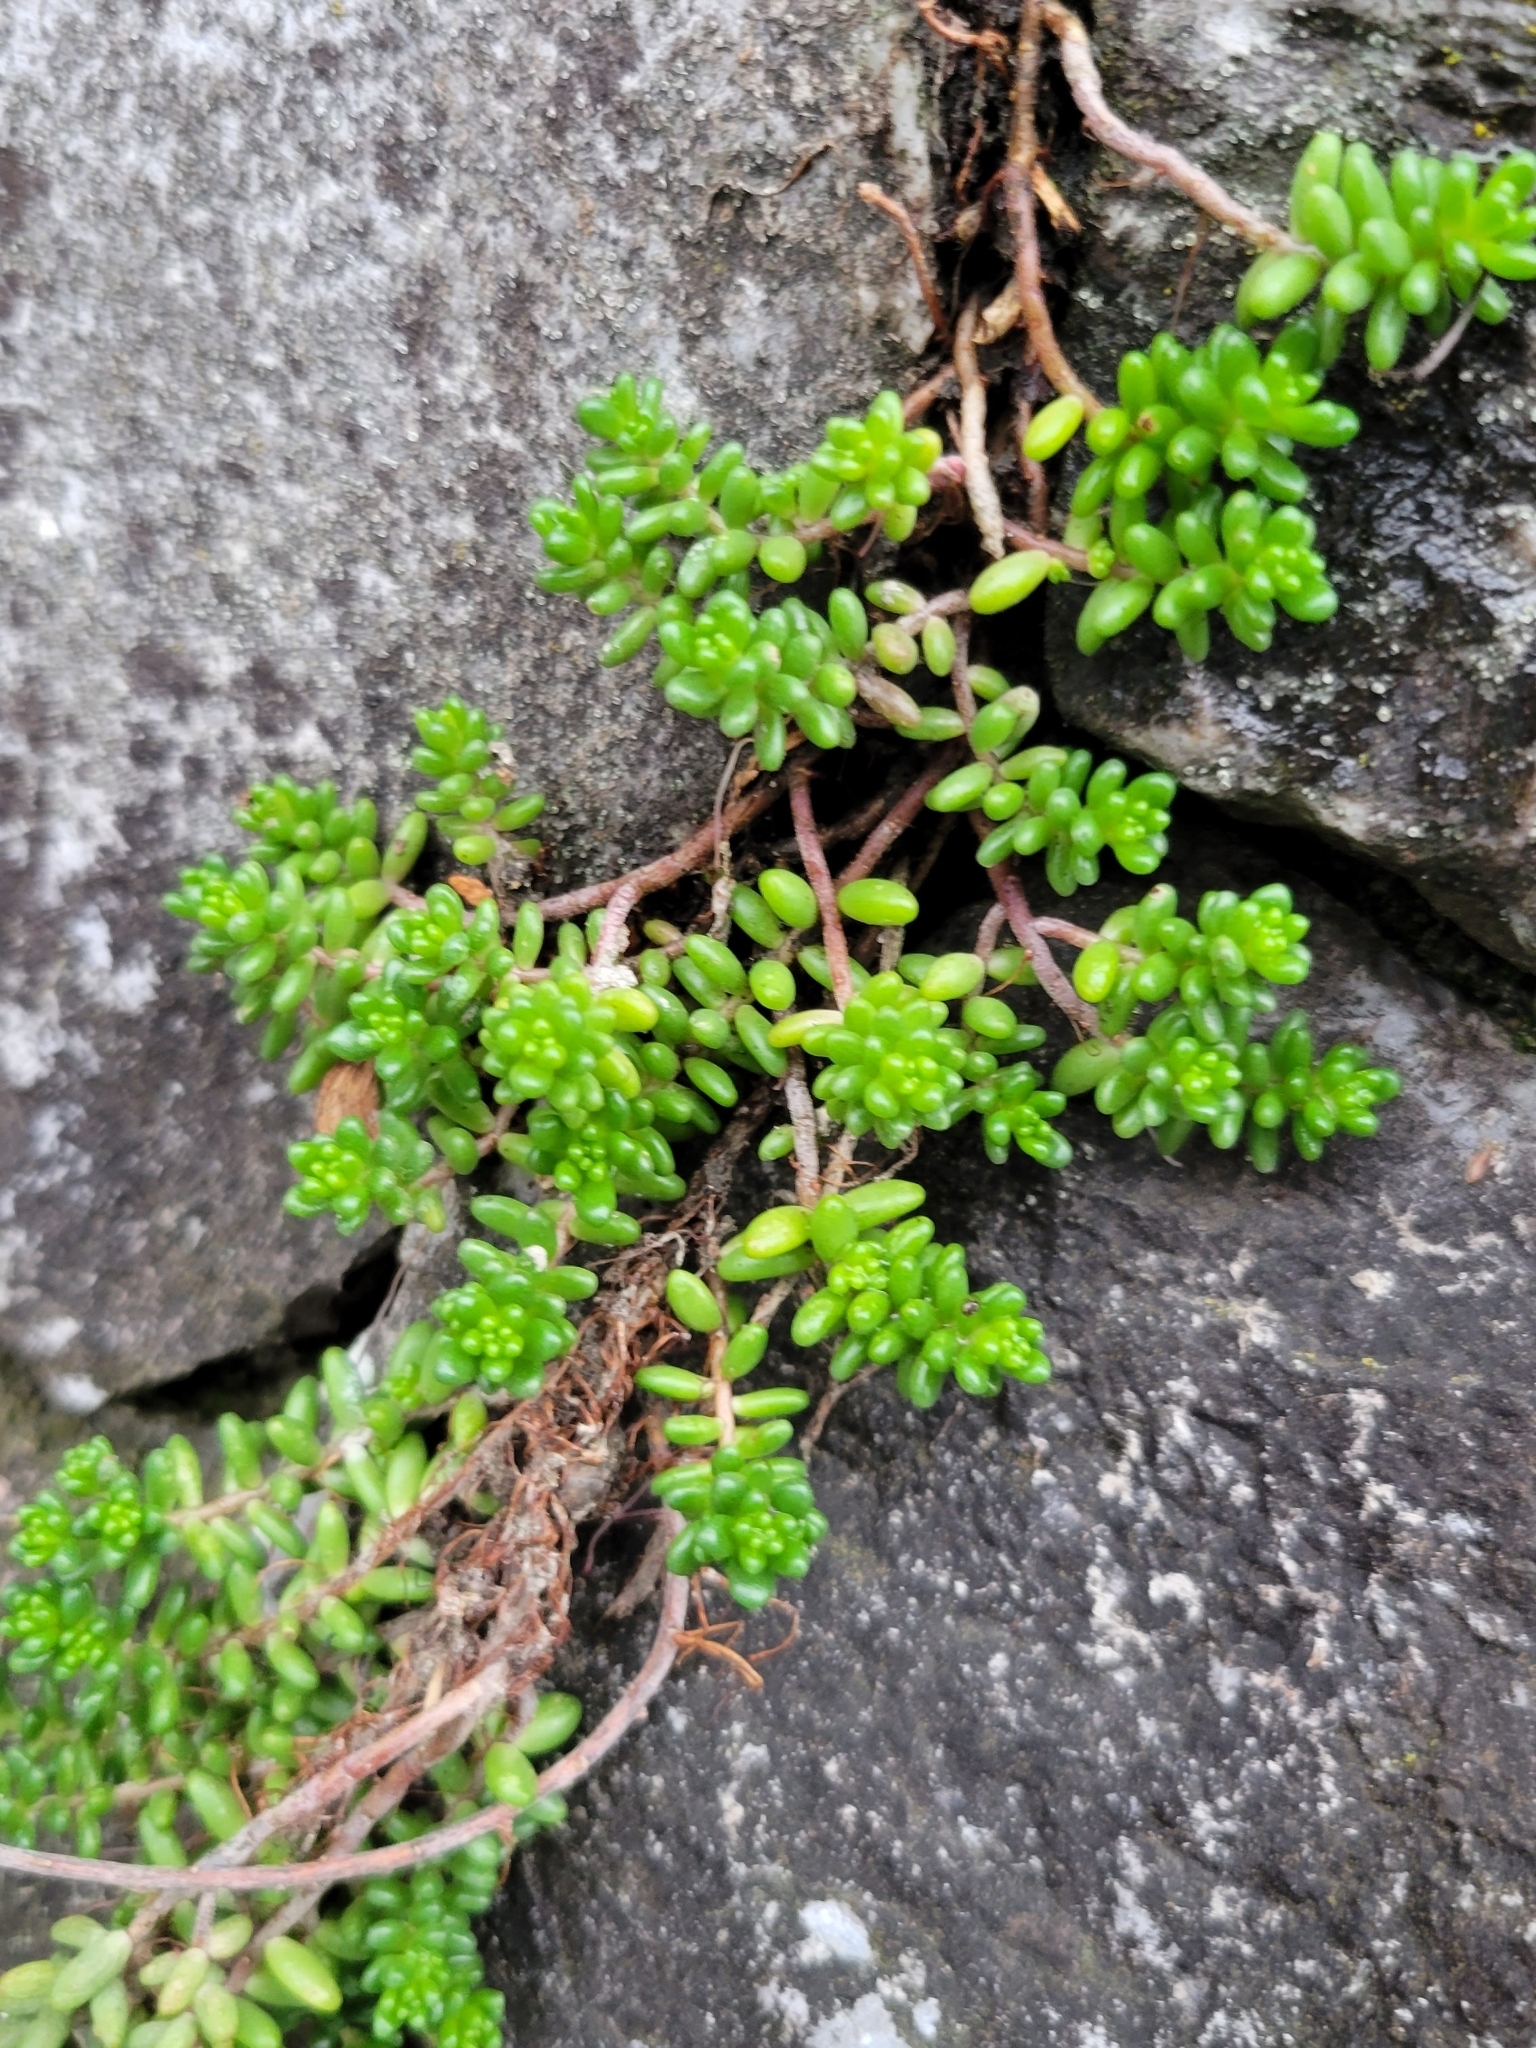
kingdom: Plantae
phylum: Tracheophyta
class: Magnoliopsida
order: Saxifragales
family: Crassulaceae
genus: Sedum
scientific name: Sedum album
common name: White stonecrop
